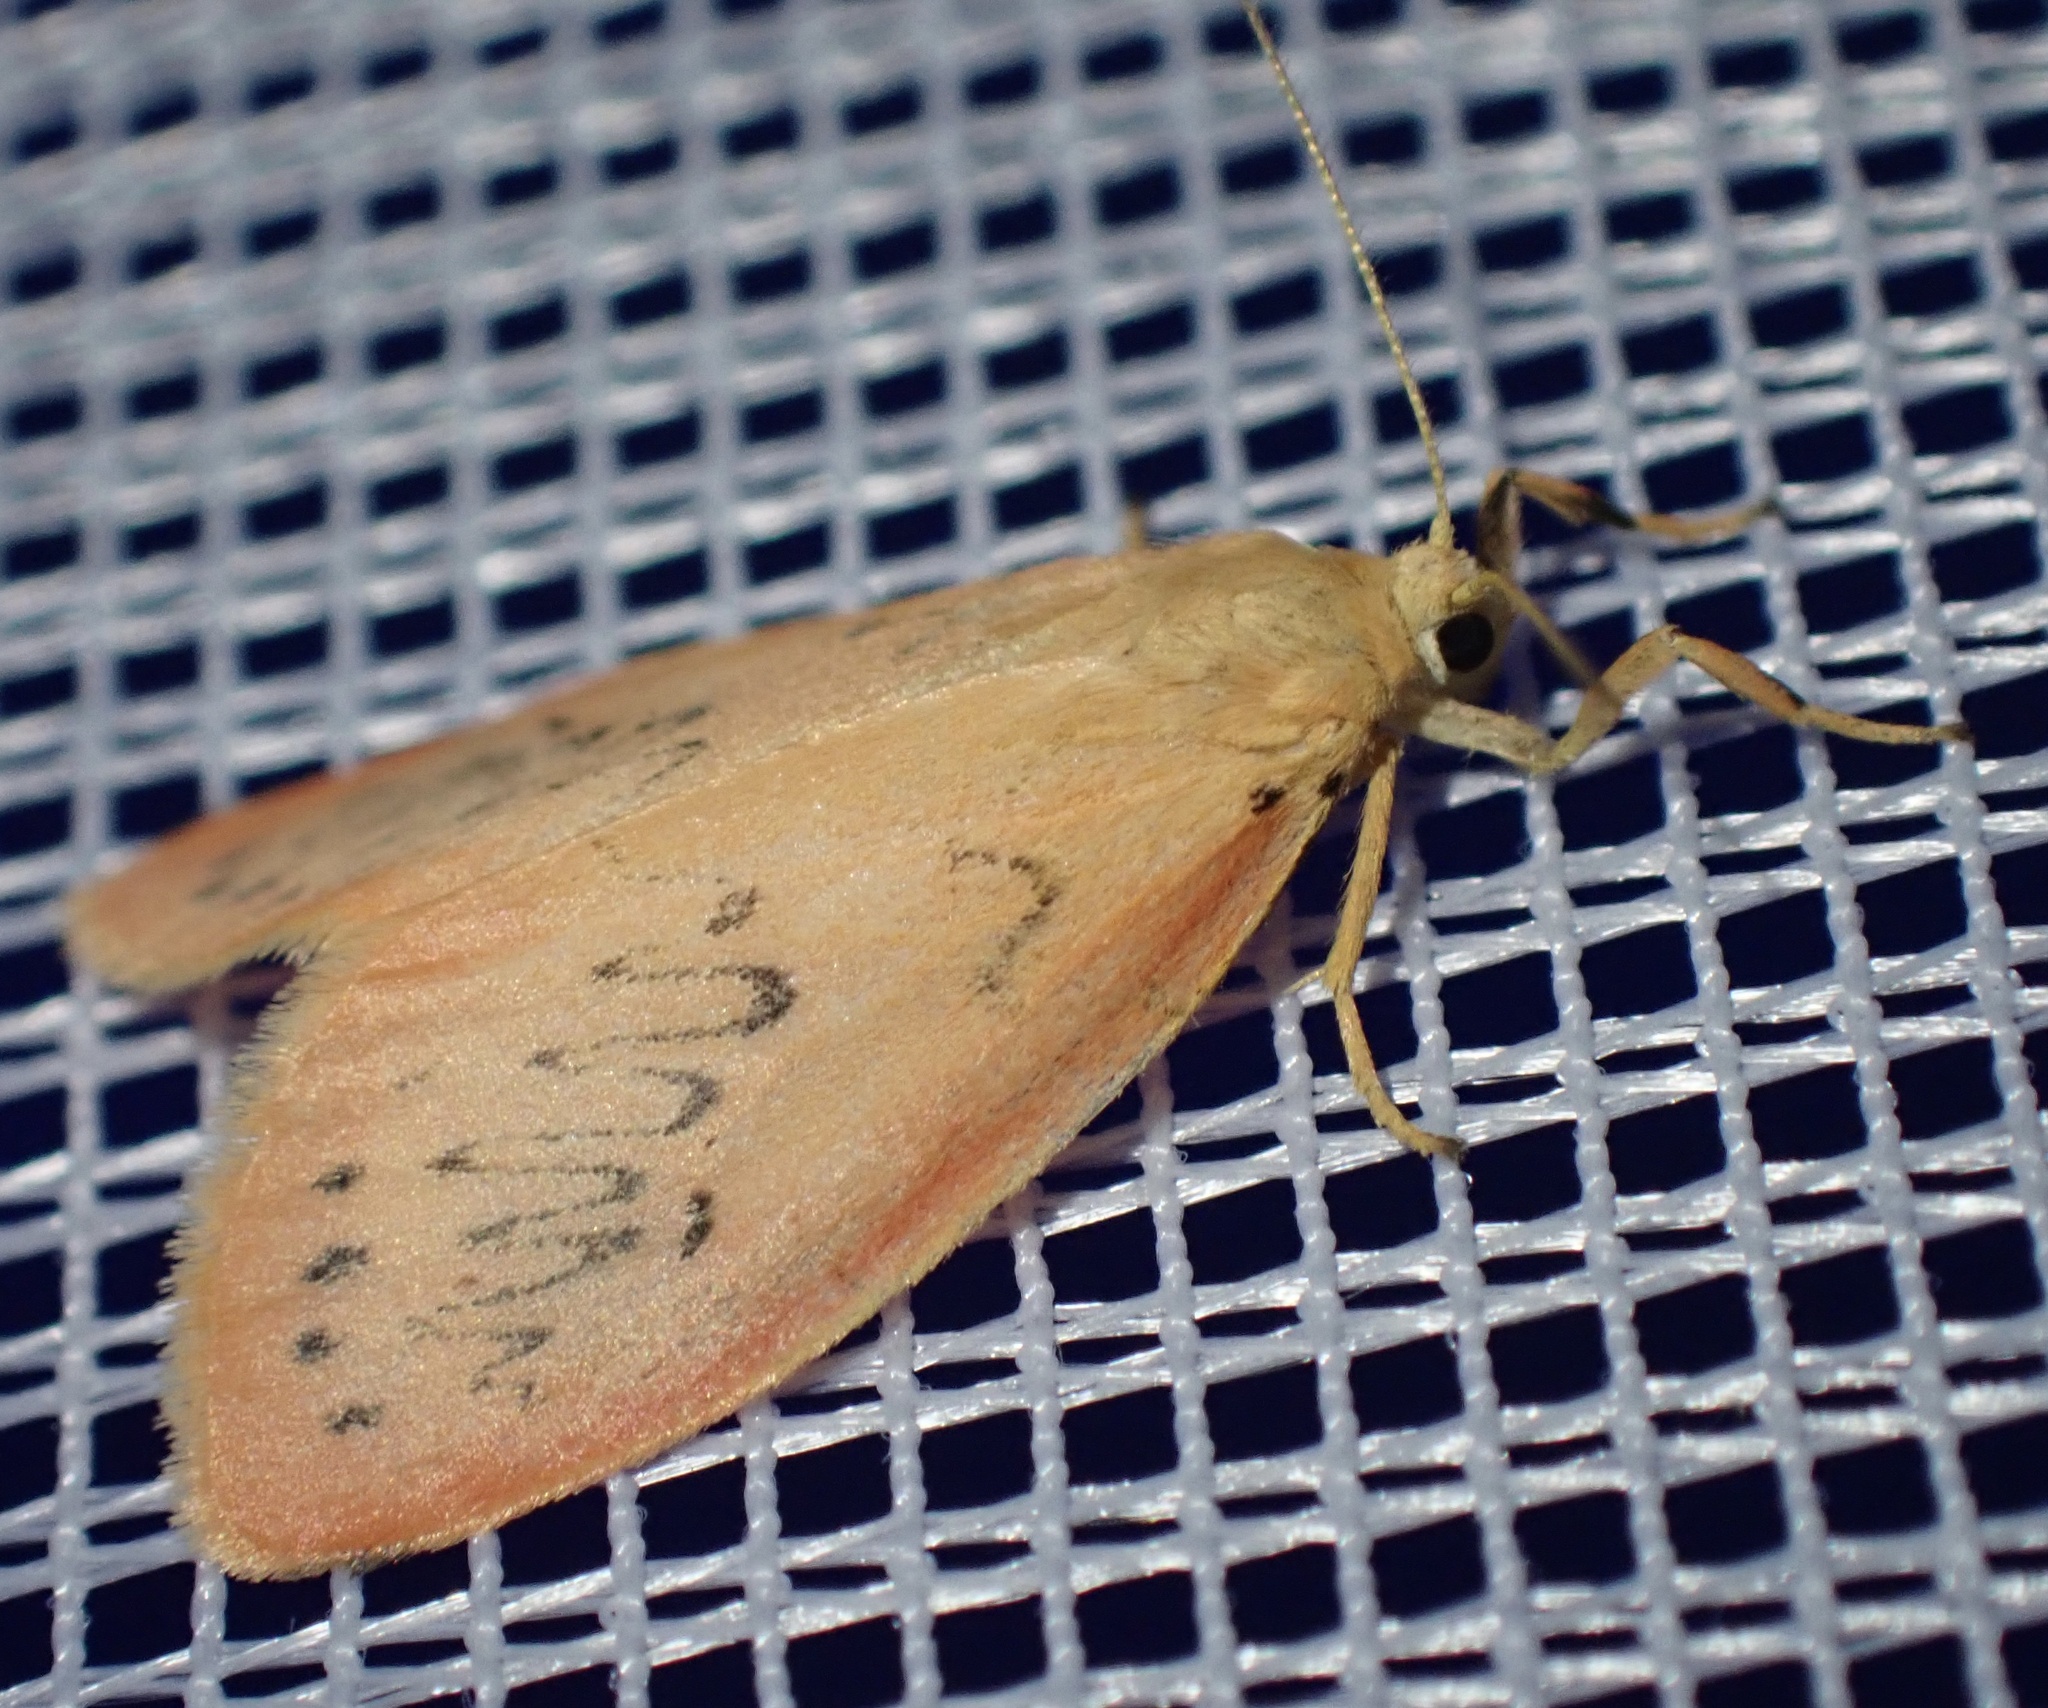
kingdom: Animalia
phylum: Arthropoda
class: Insecta
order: Lepidoptera
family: Erebidae
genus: Miltochrista
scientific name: Miltochrista miniata
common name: Rosy footman
